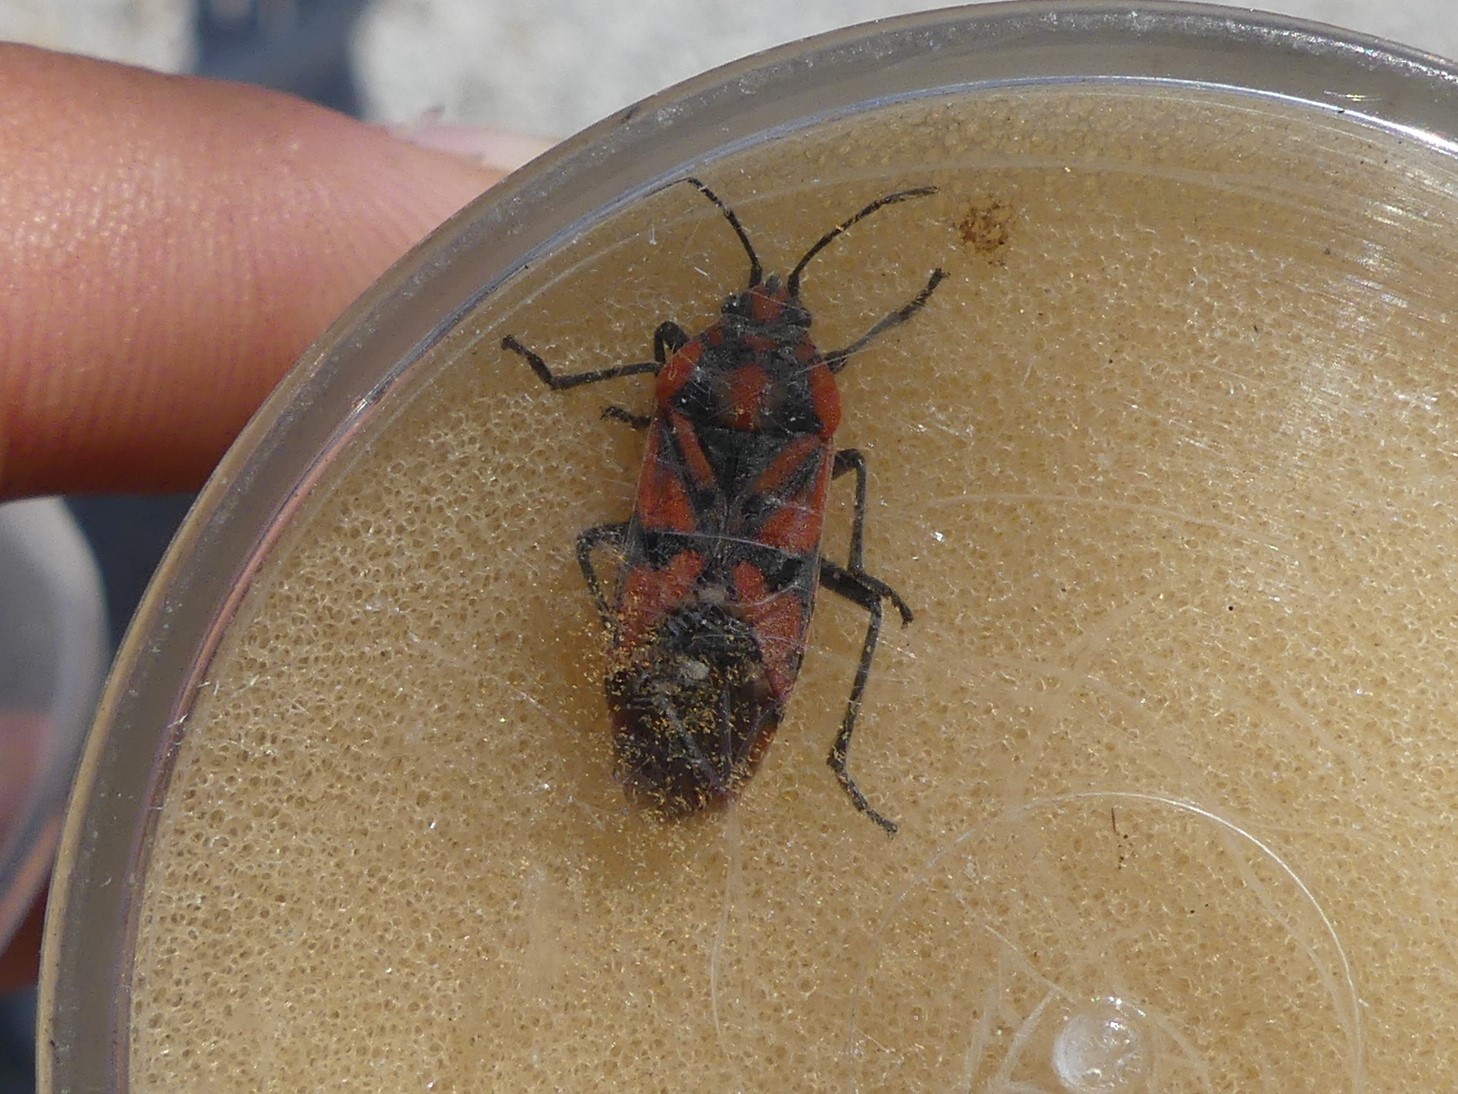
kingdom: Animalia
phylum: Arthropoda
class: Insecta
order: Hemiptera
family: Lygaeidae
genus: Spilostethus
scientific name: Spilostethus pandurus
